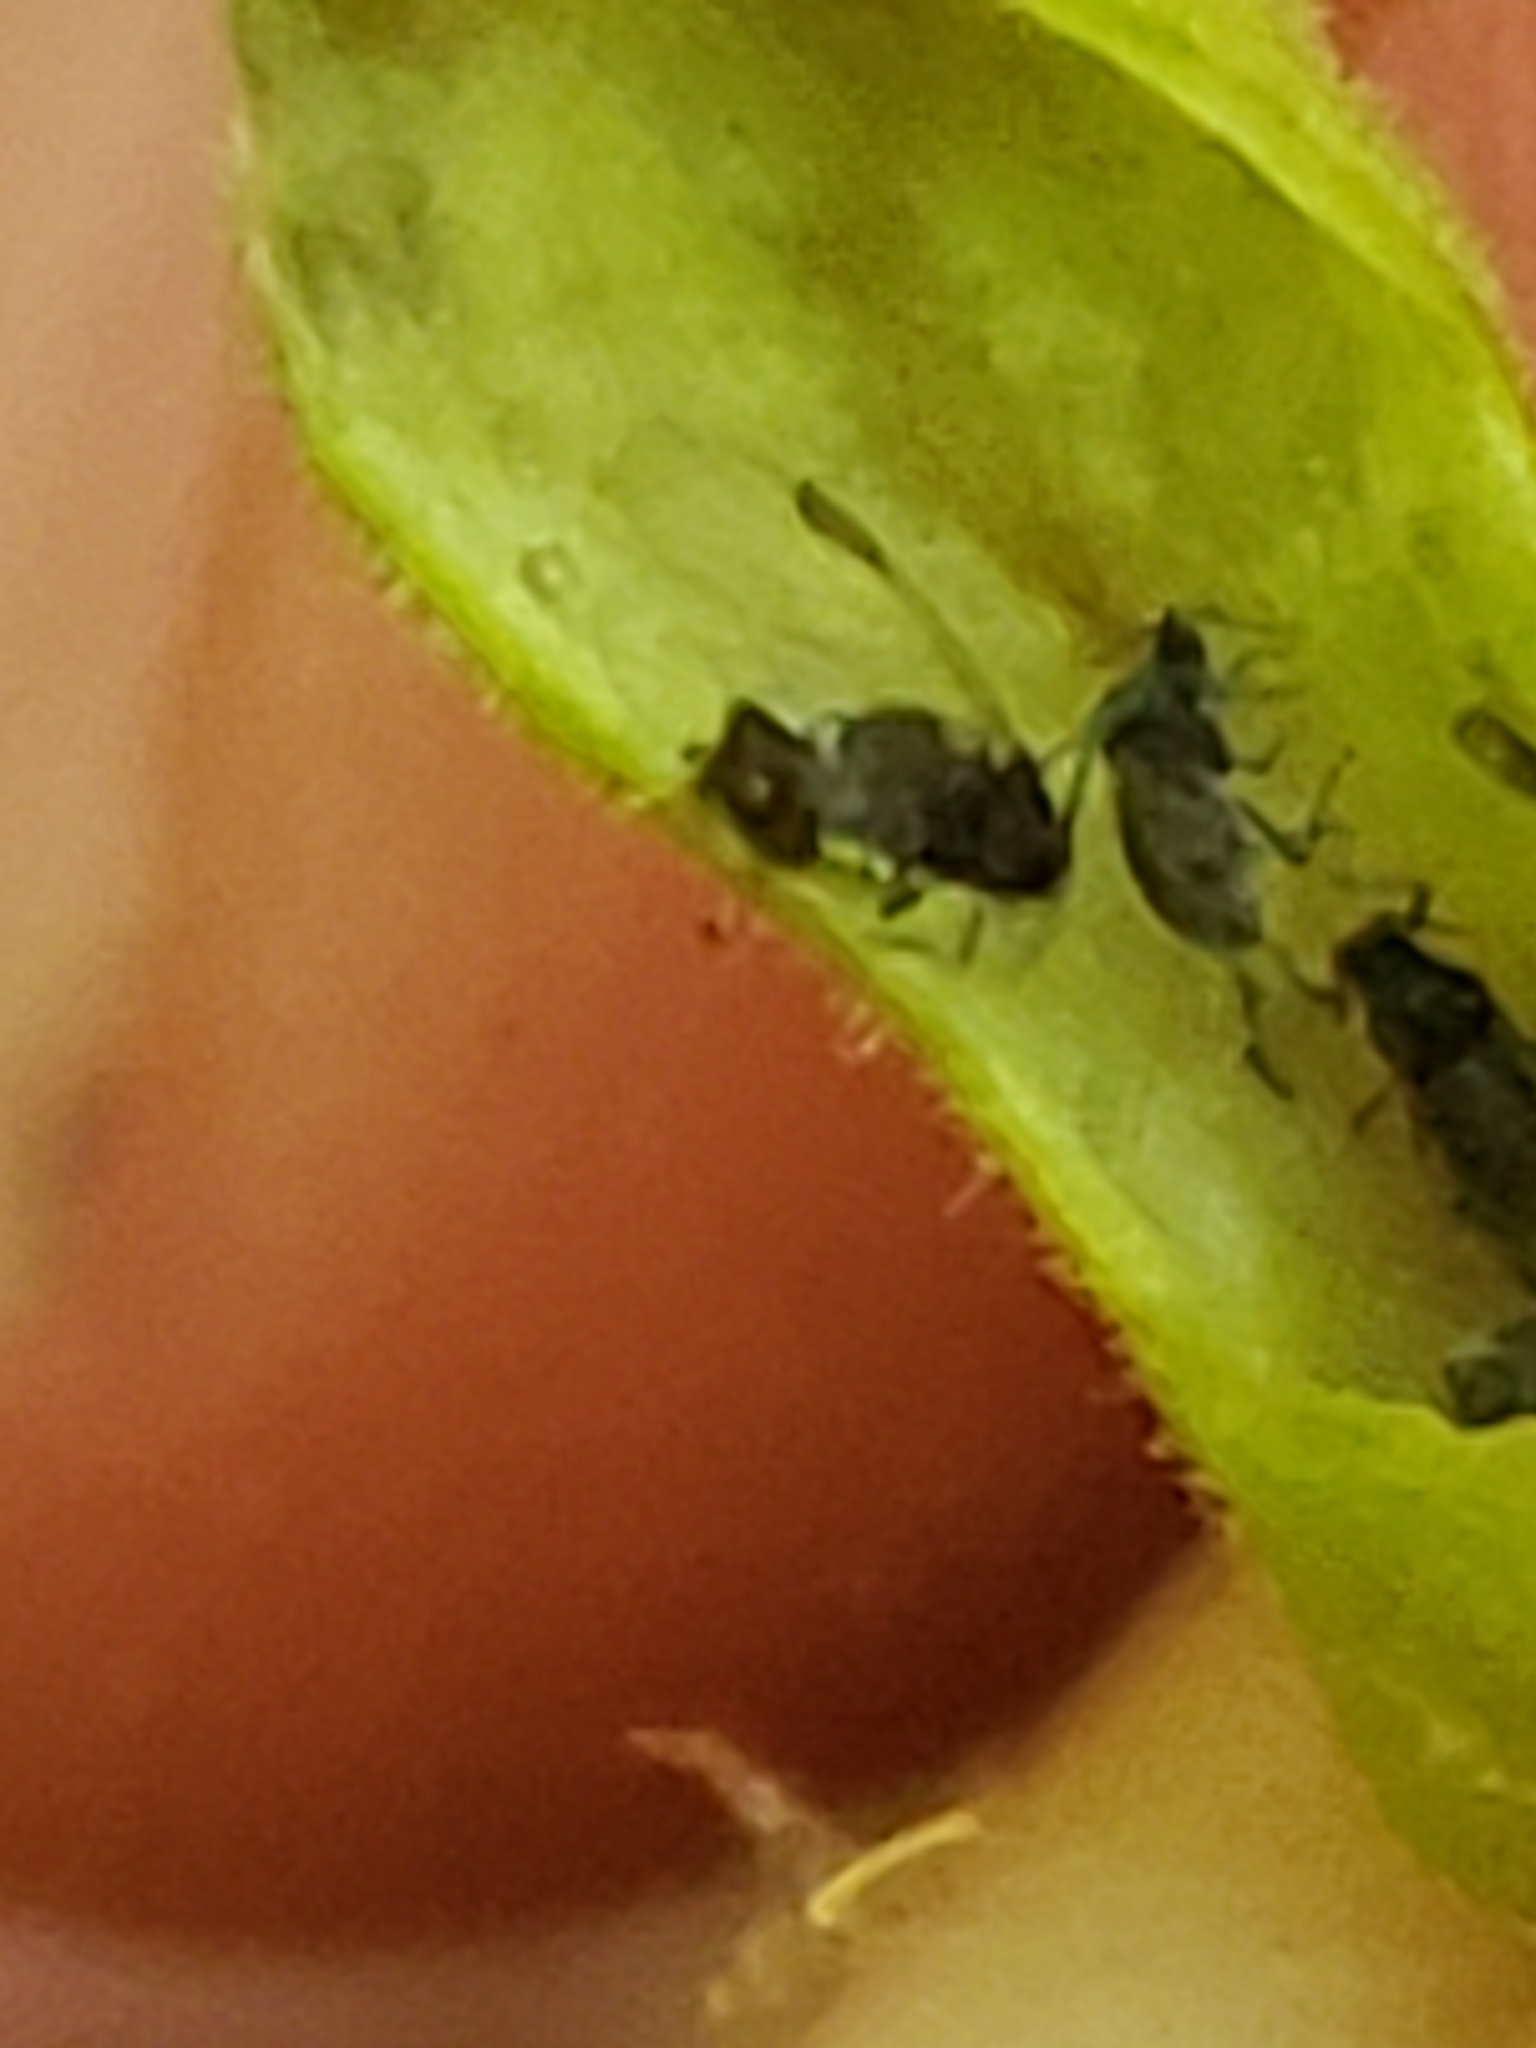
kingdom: Animalia
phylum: Arthropoda
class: Insecta
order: Hemiptera
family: Aphididae
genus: Tetraneura
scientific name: Tetraneura nigriabdominalis
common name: Aphid
